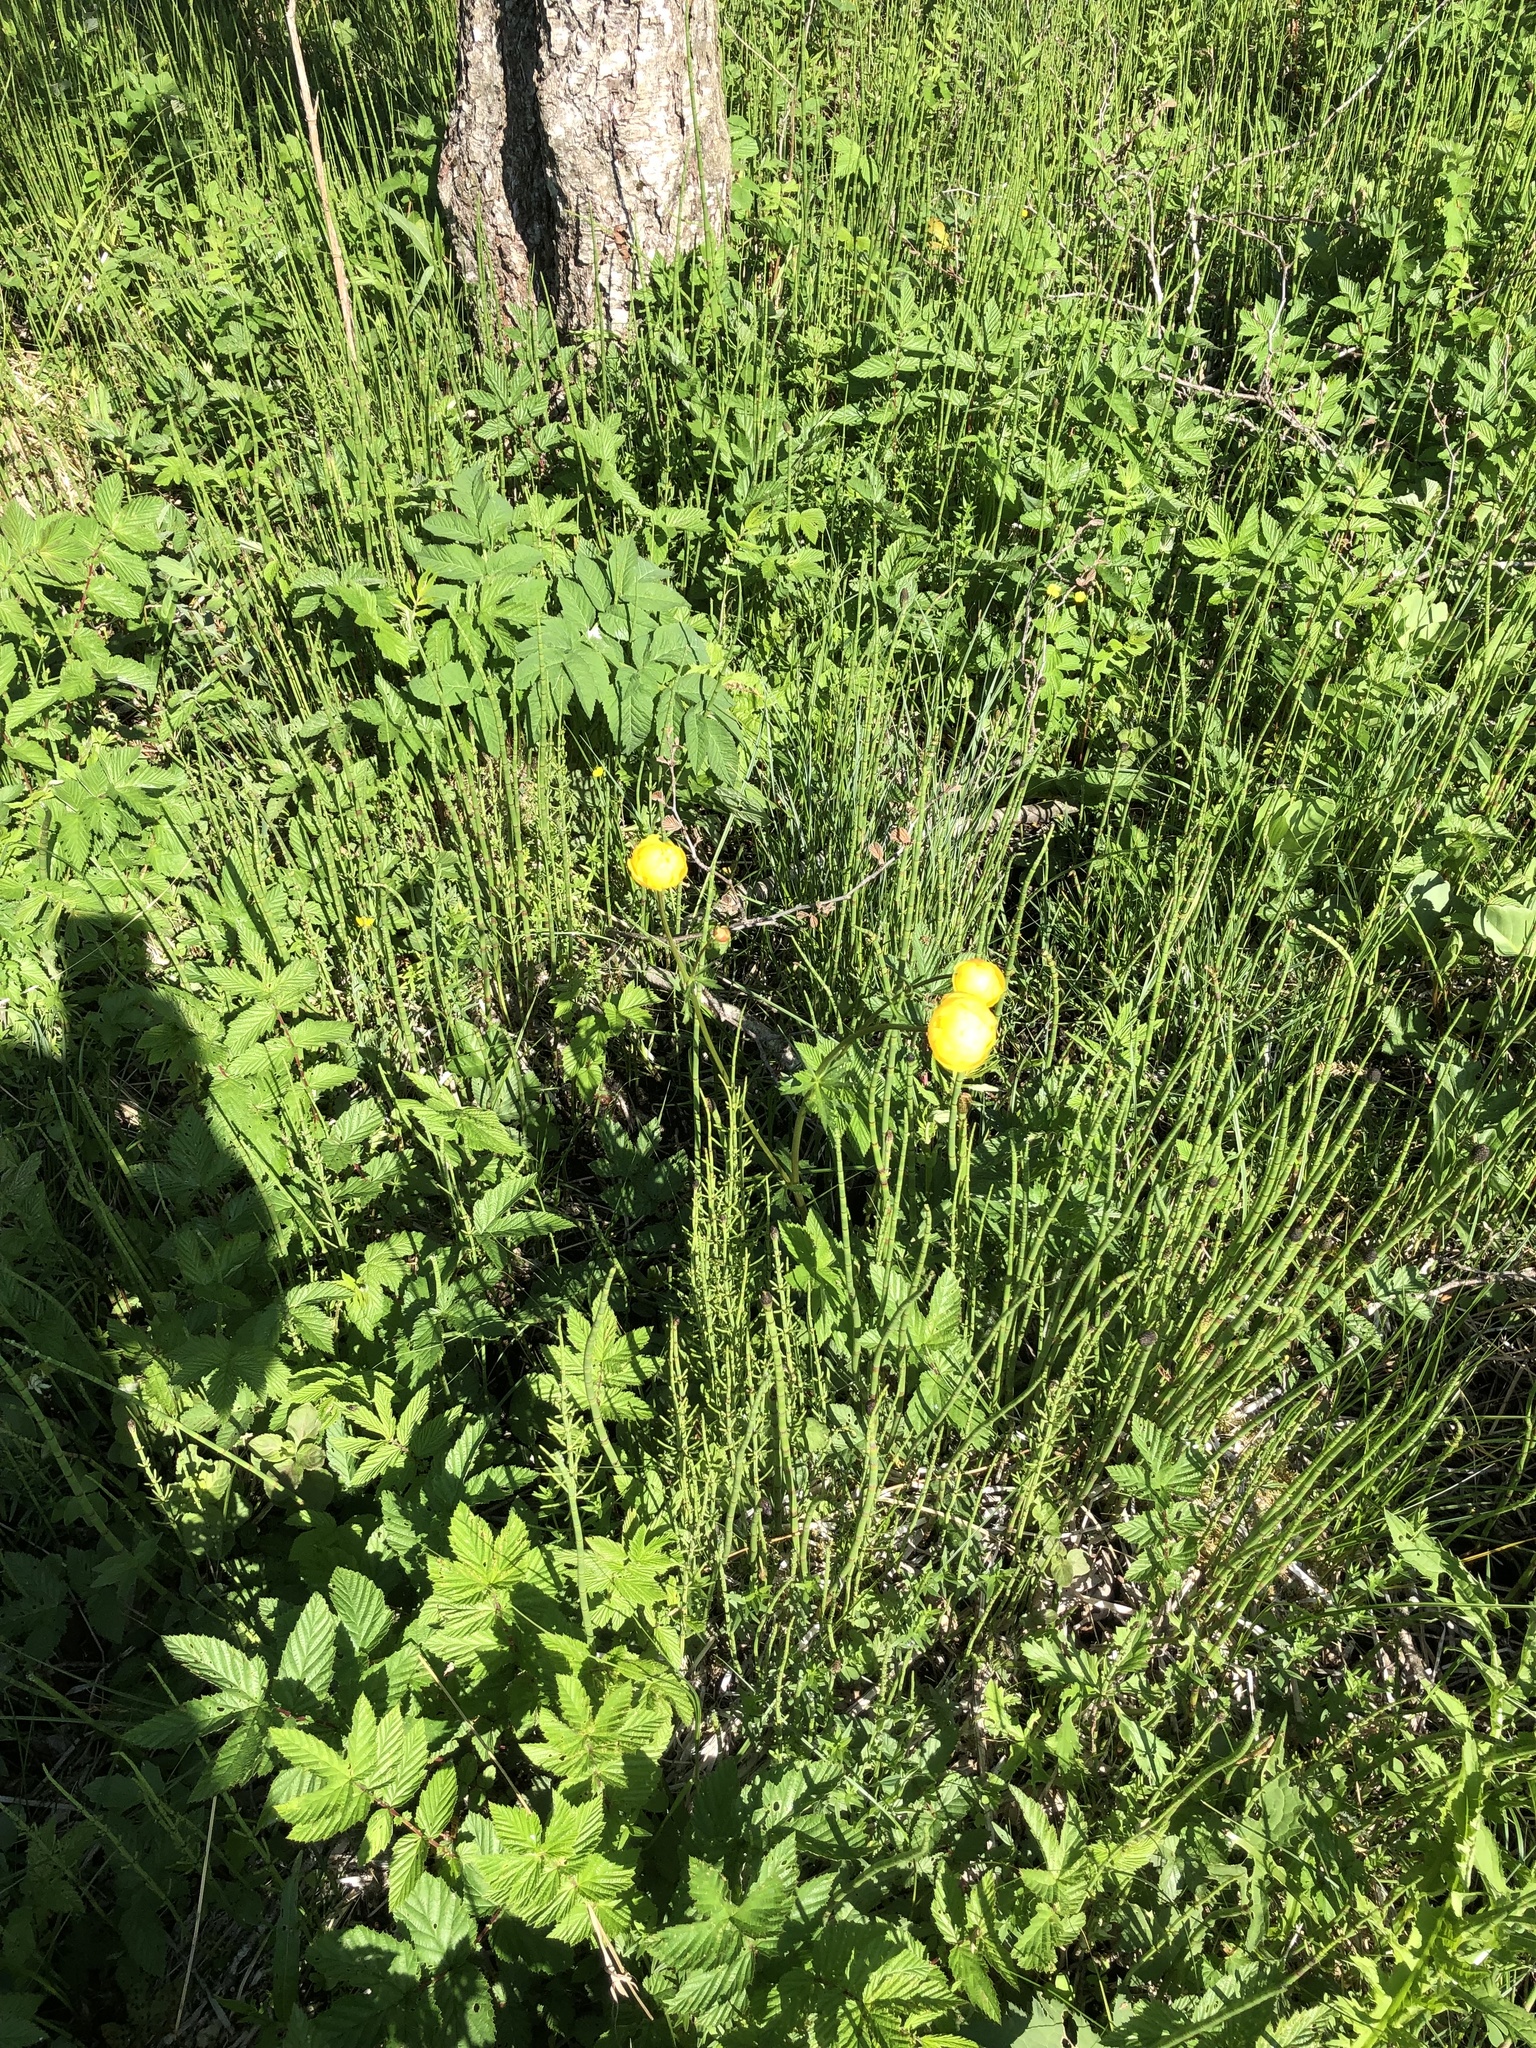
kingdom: Plantae
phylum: Tracheophyta
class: Magnoliopsida
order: Ranunculales
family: Ranunculaceae
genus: Trollius
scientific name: Trollius europaeus
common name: European globeflower
